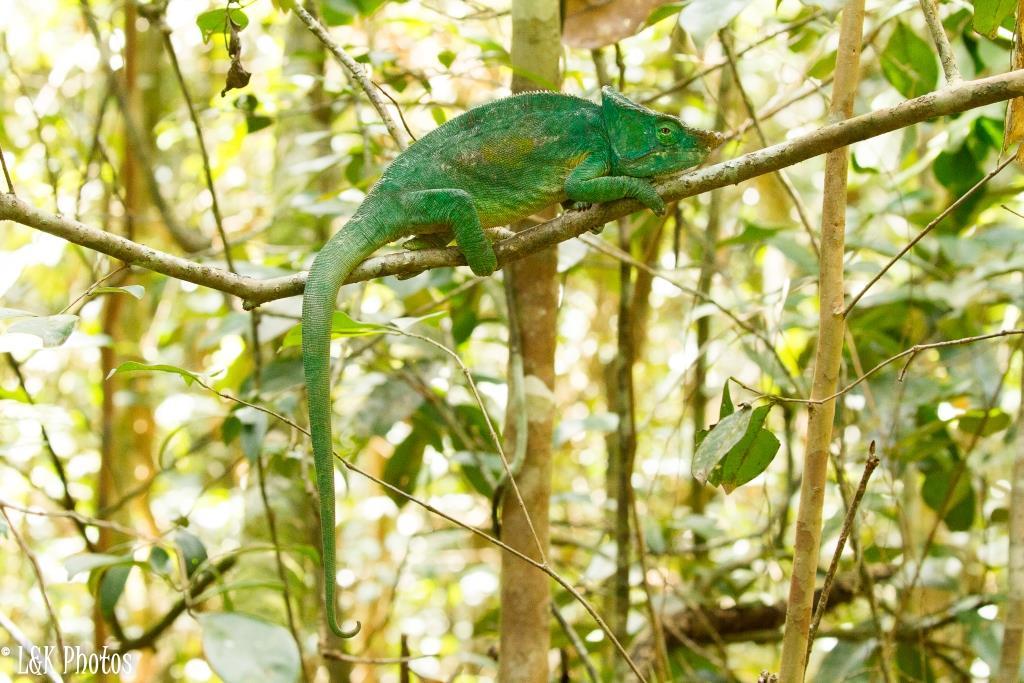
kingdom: Animalia
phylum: Chordata
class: Squamata
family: Chamaeleonidae
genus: Calumma
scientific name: Calumma parsonii
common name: Parson's chameleon
